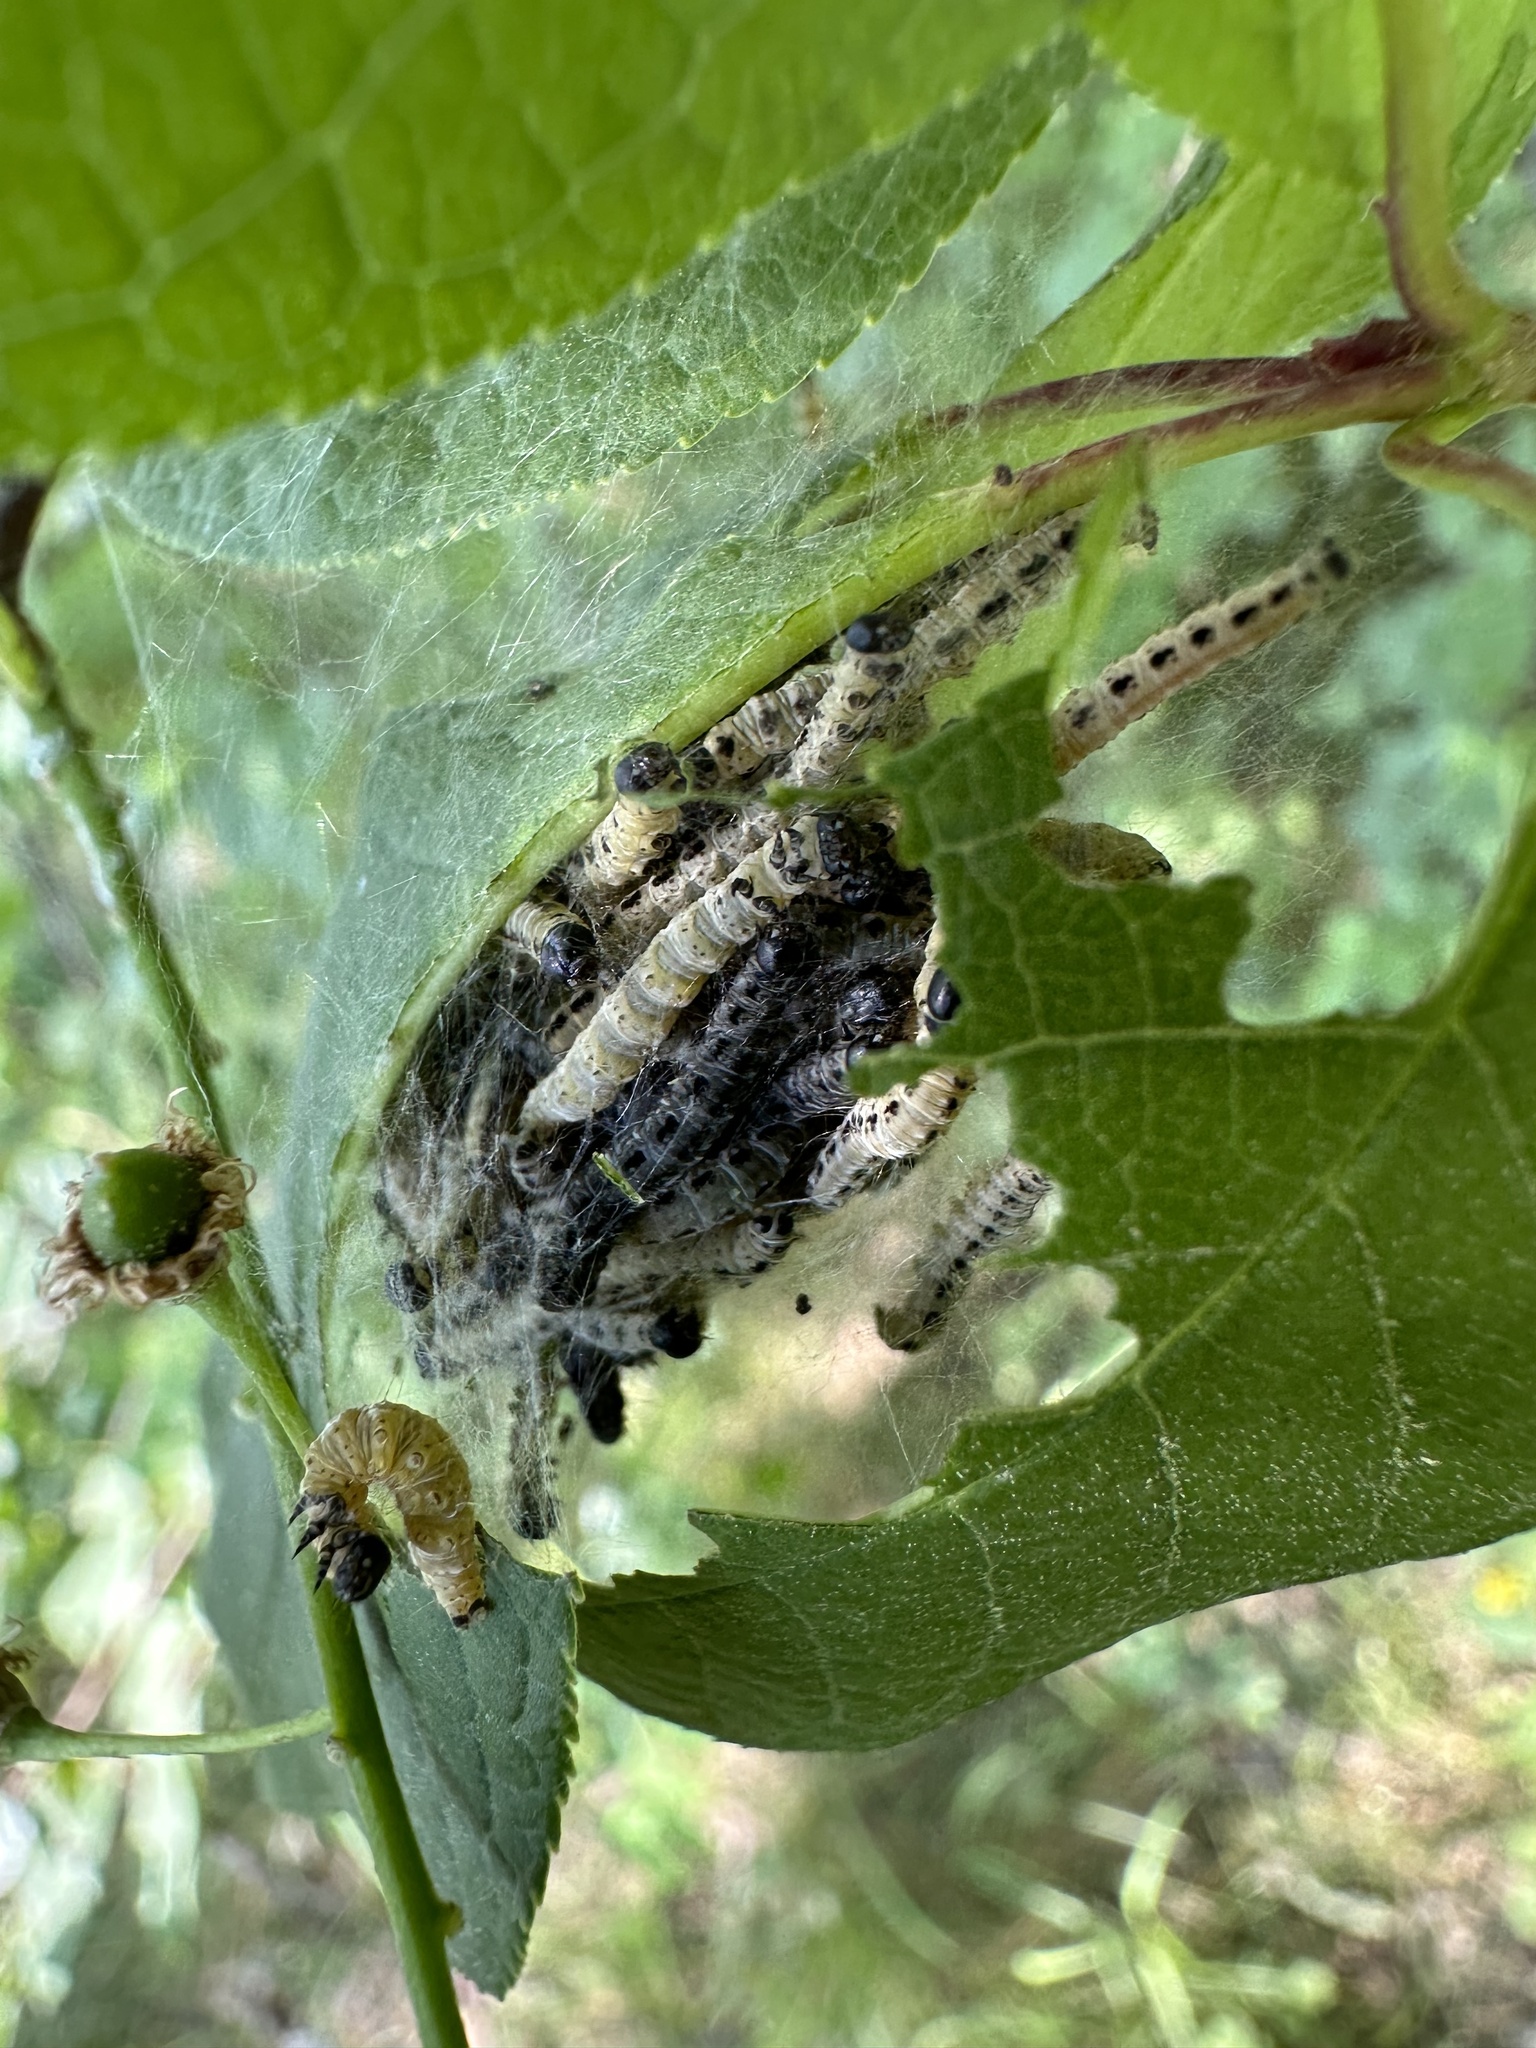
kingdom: Animalia
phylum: Arthropoda
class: Insecta
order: Lepidoptera
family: Yponomeutidae
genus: Yponomeuta
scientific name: Yponomeuta evonymella
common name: Bird-cherry ermine
